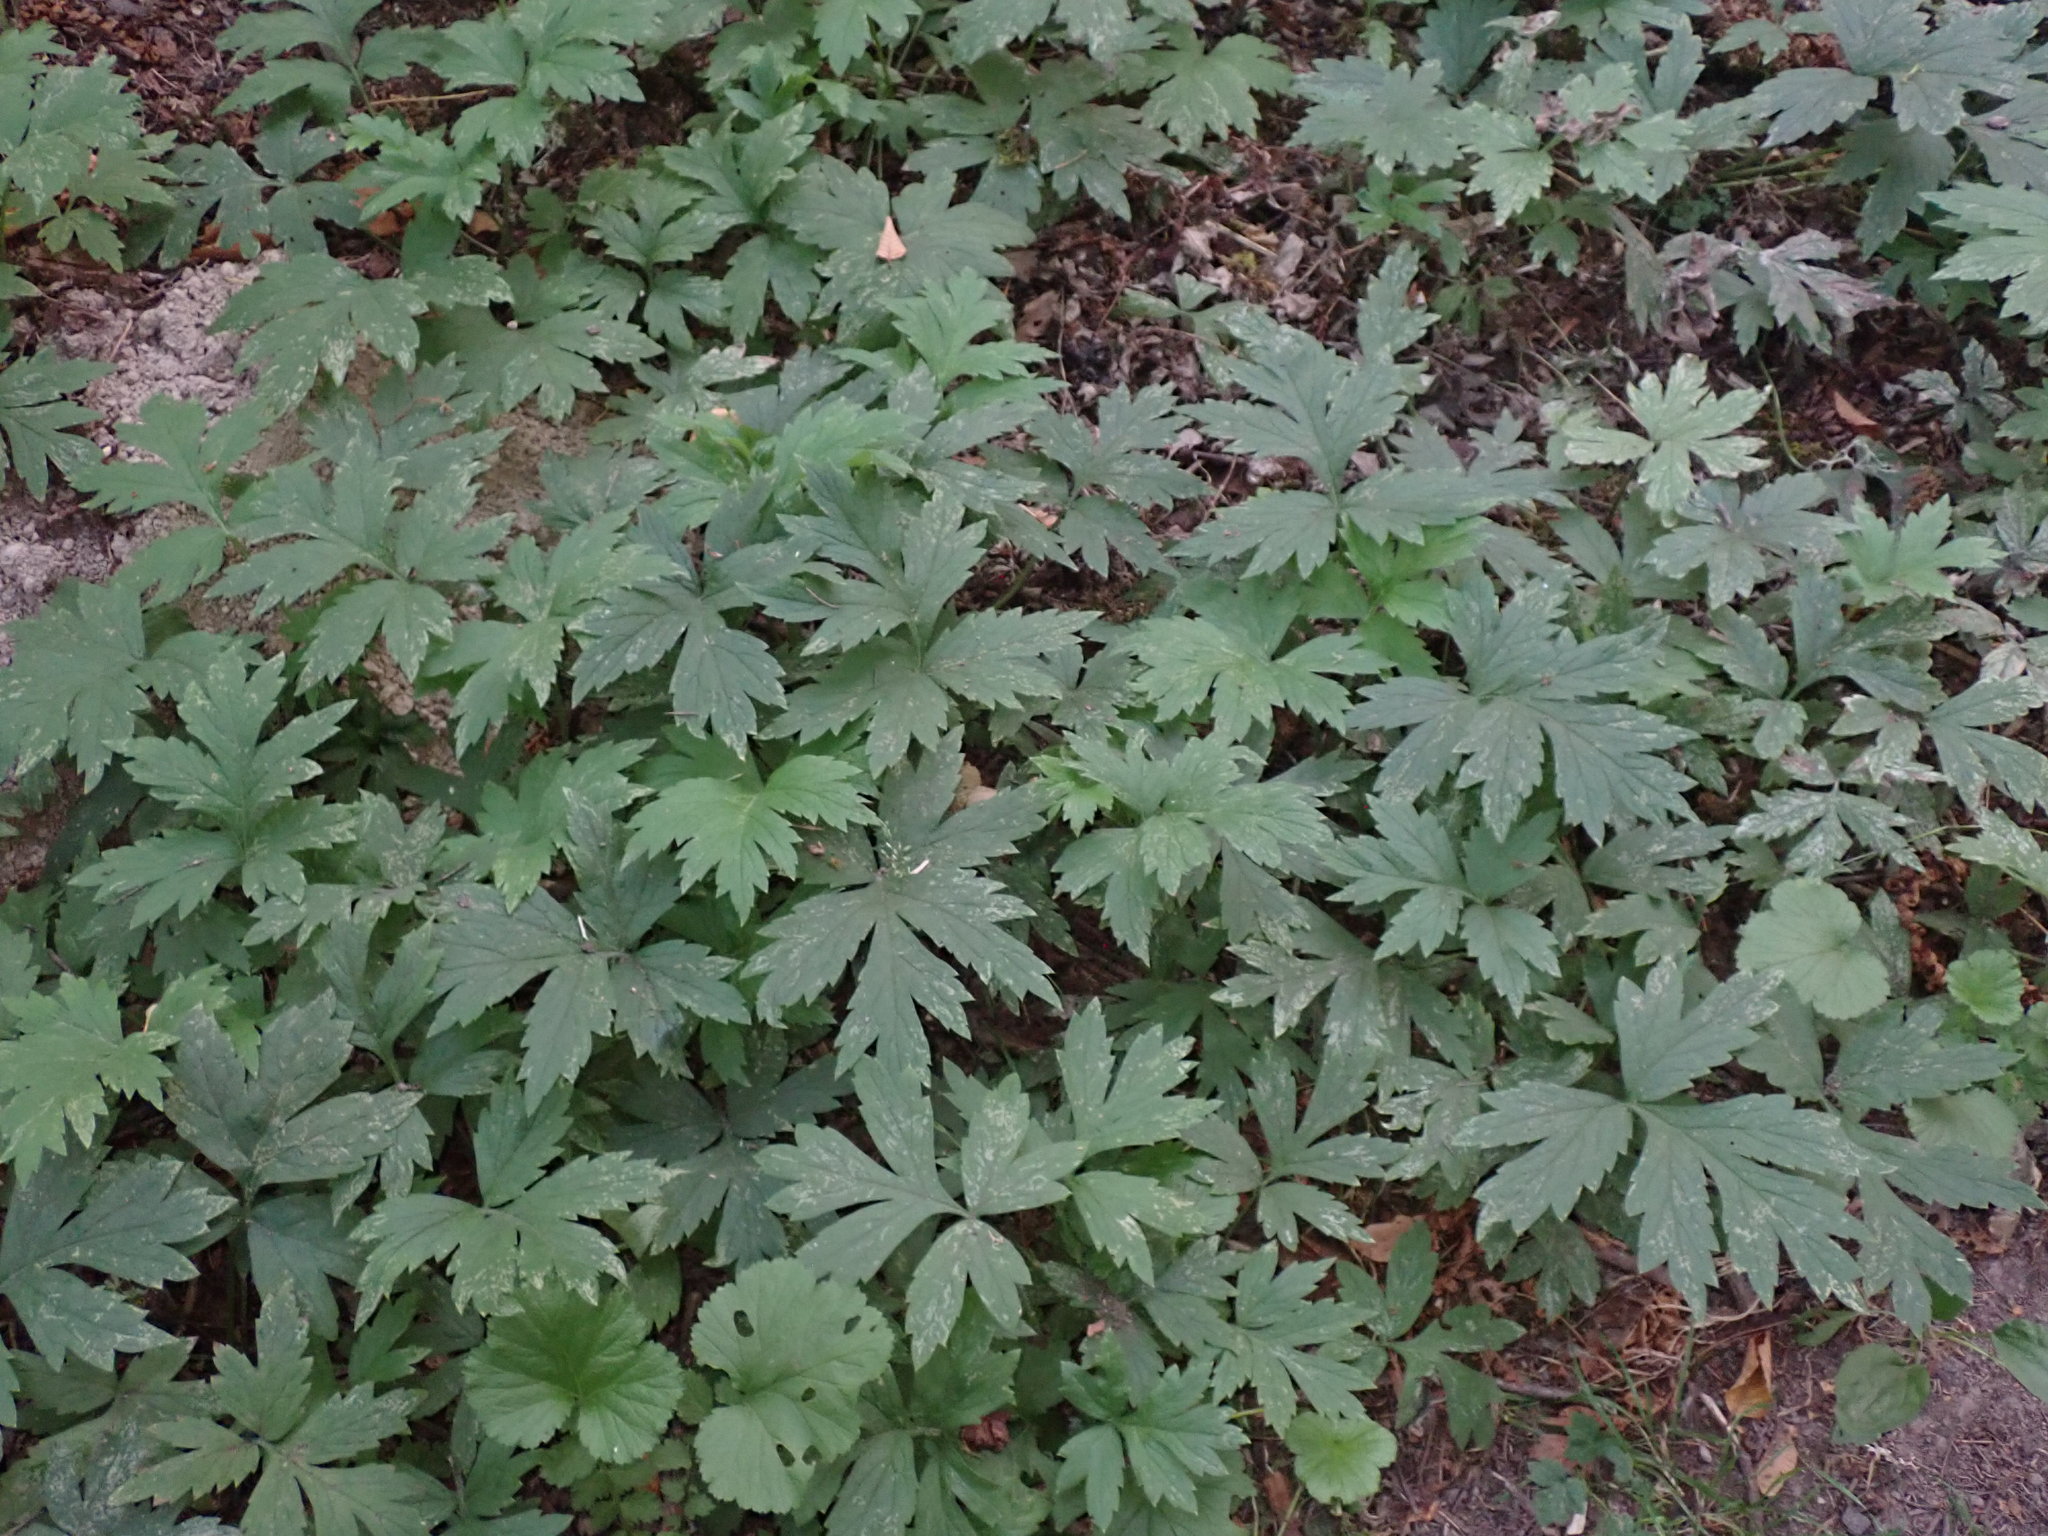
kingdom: Plantae
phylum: Tracheophyta
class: Magnoliopsida
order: Boraginales
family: Hydrophyllaceae
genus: Hydrophyllum
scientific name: Hydrophyllum tenuipes
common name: Pacific waterleaf
